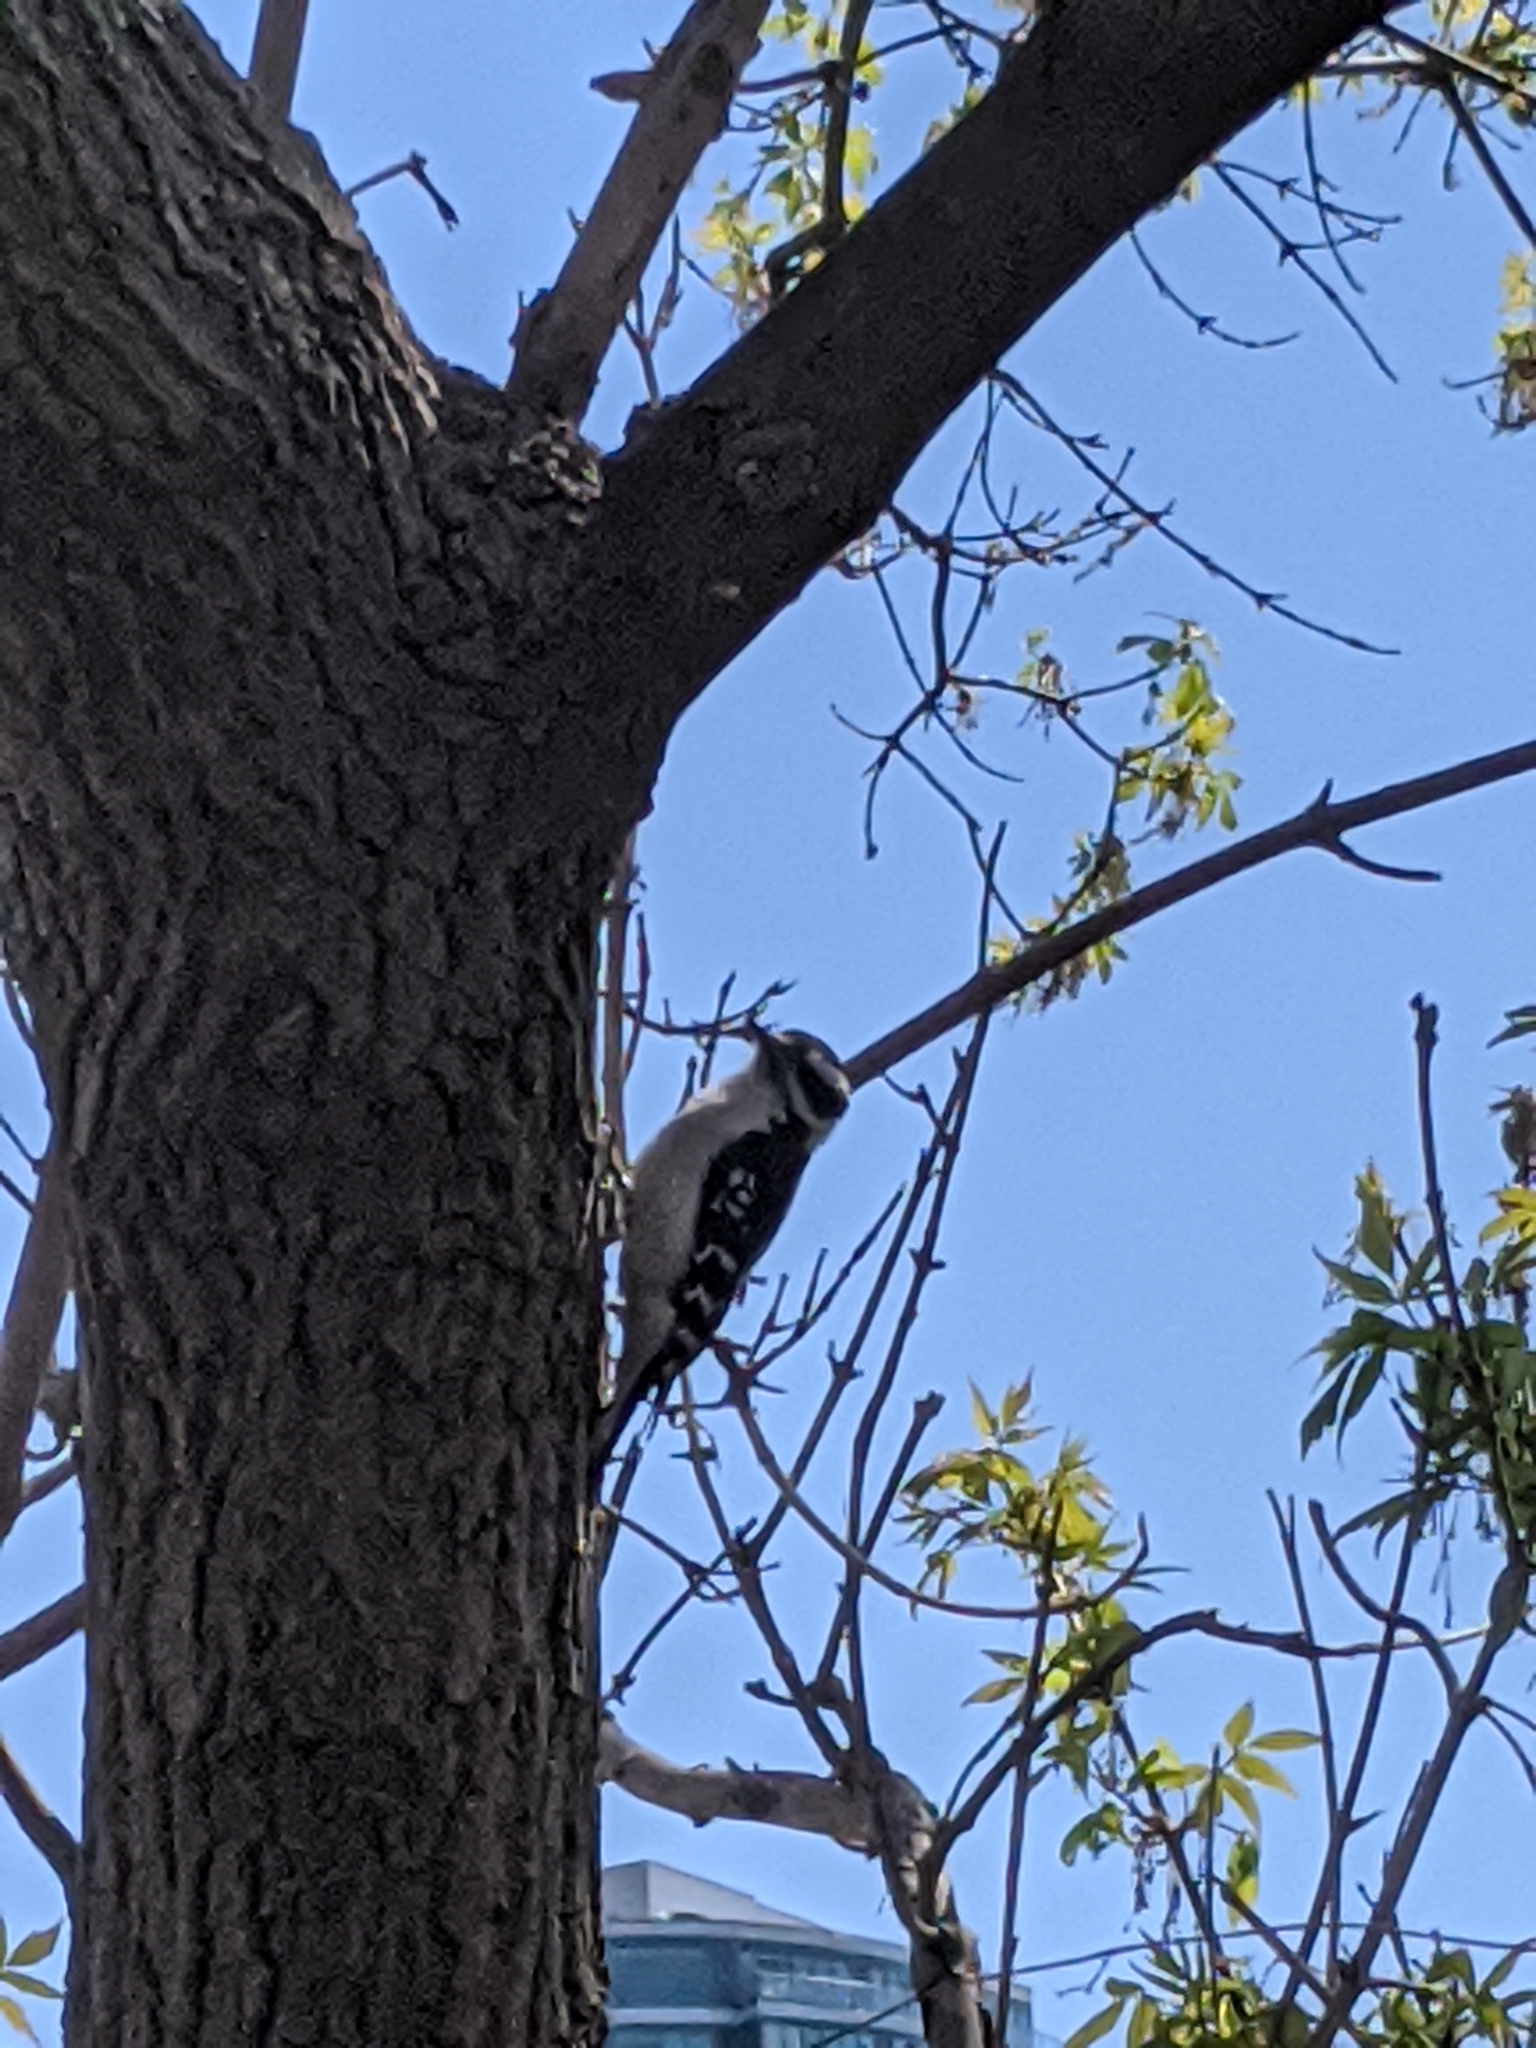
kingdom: Animalia
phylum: Chordata
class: Aves
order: Piciformes
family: Picidae
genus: Dryobates
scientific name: Dryobates pubescens
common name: Downy woodpecker
